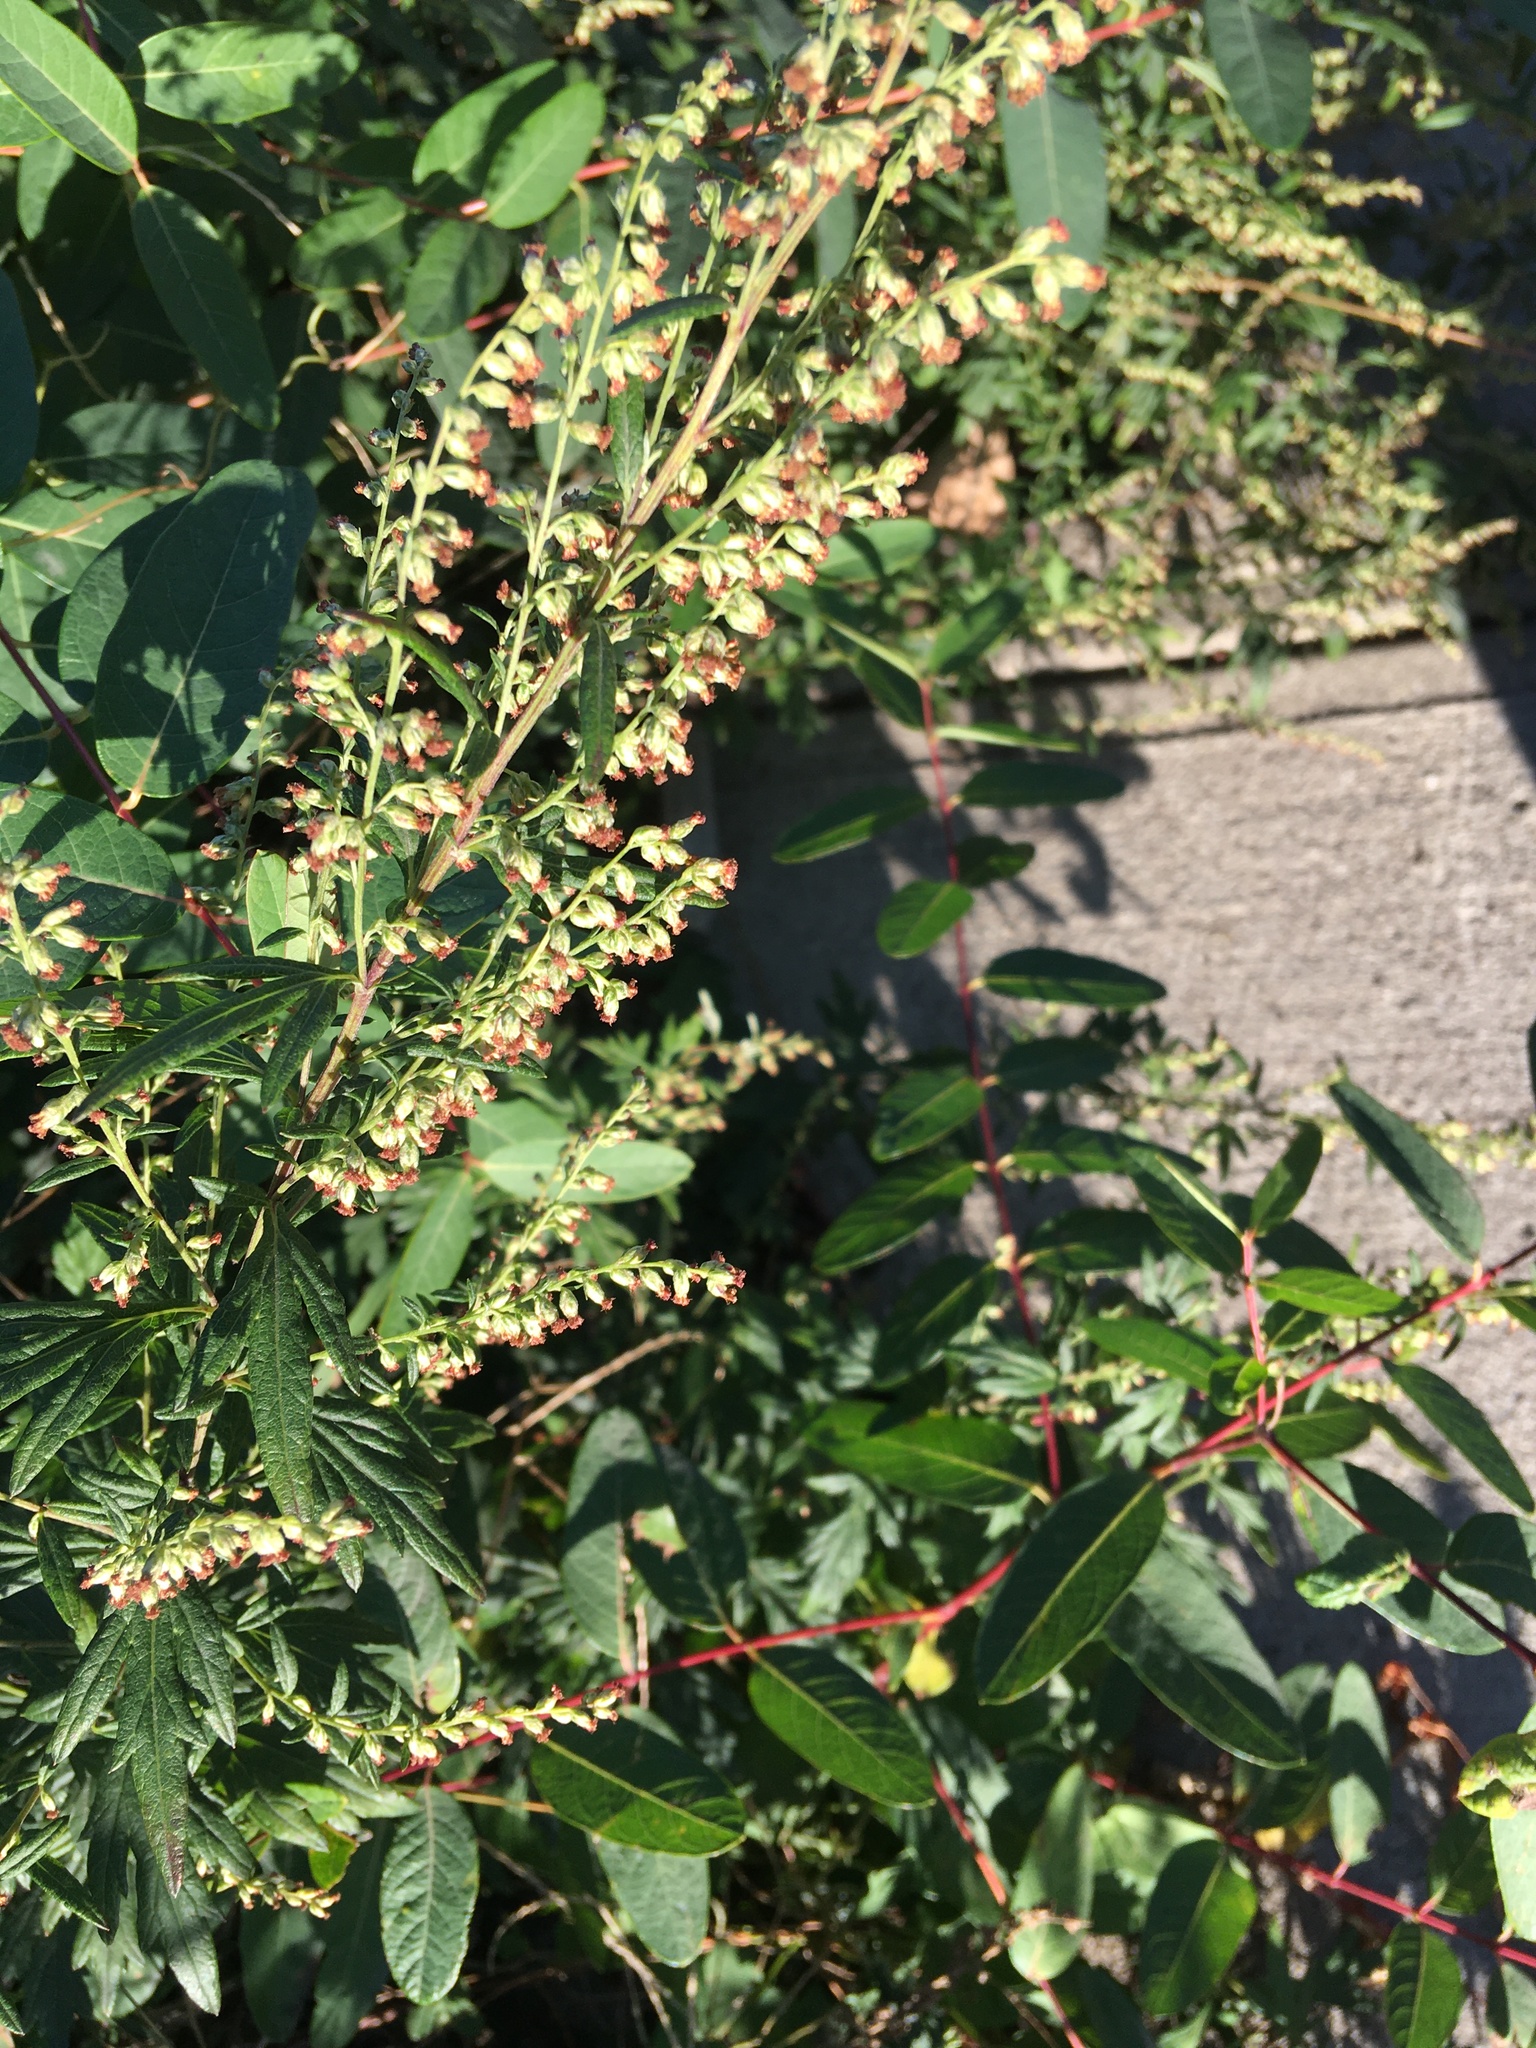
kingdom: Plantae
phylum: Tracheophyta
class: Magnoliopsida
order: Asterales
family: Asteraceae
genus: Artemisia
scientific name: Artemisia vulgaris
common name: Mugwort
